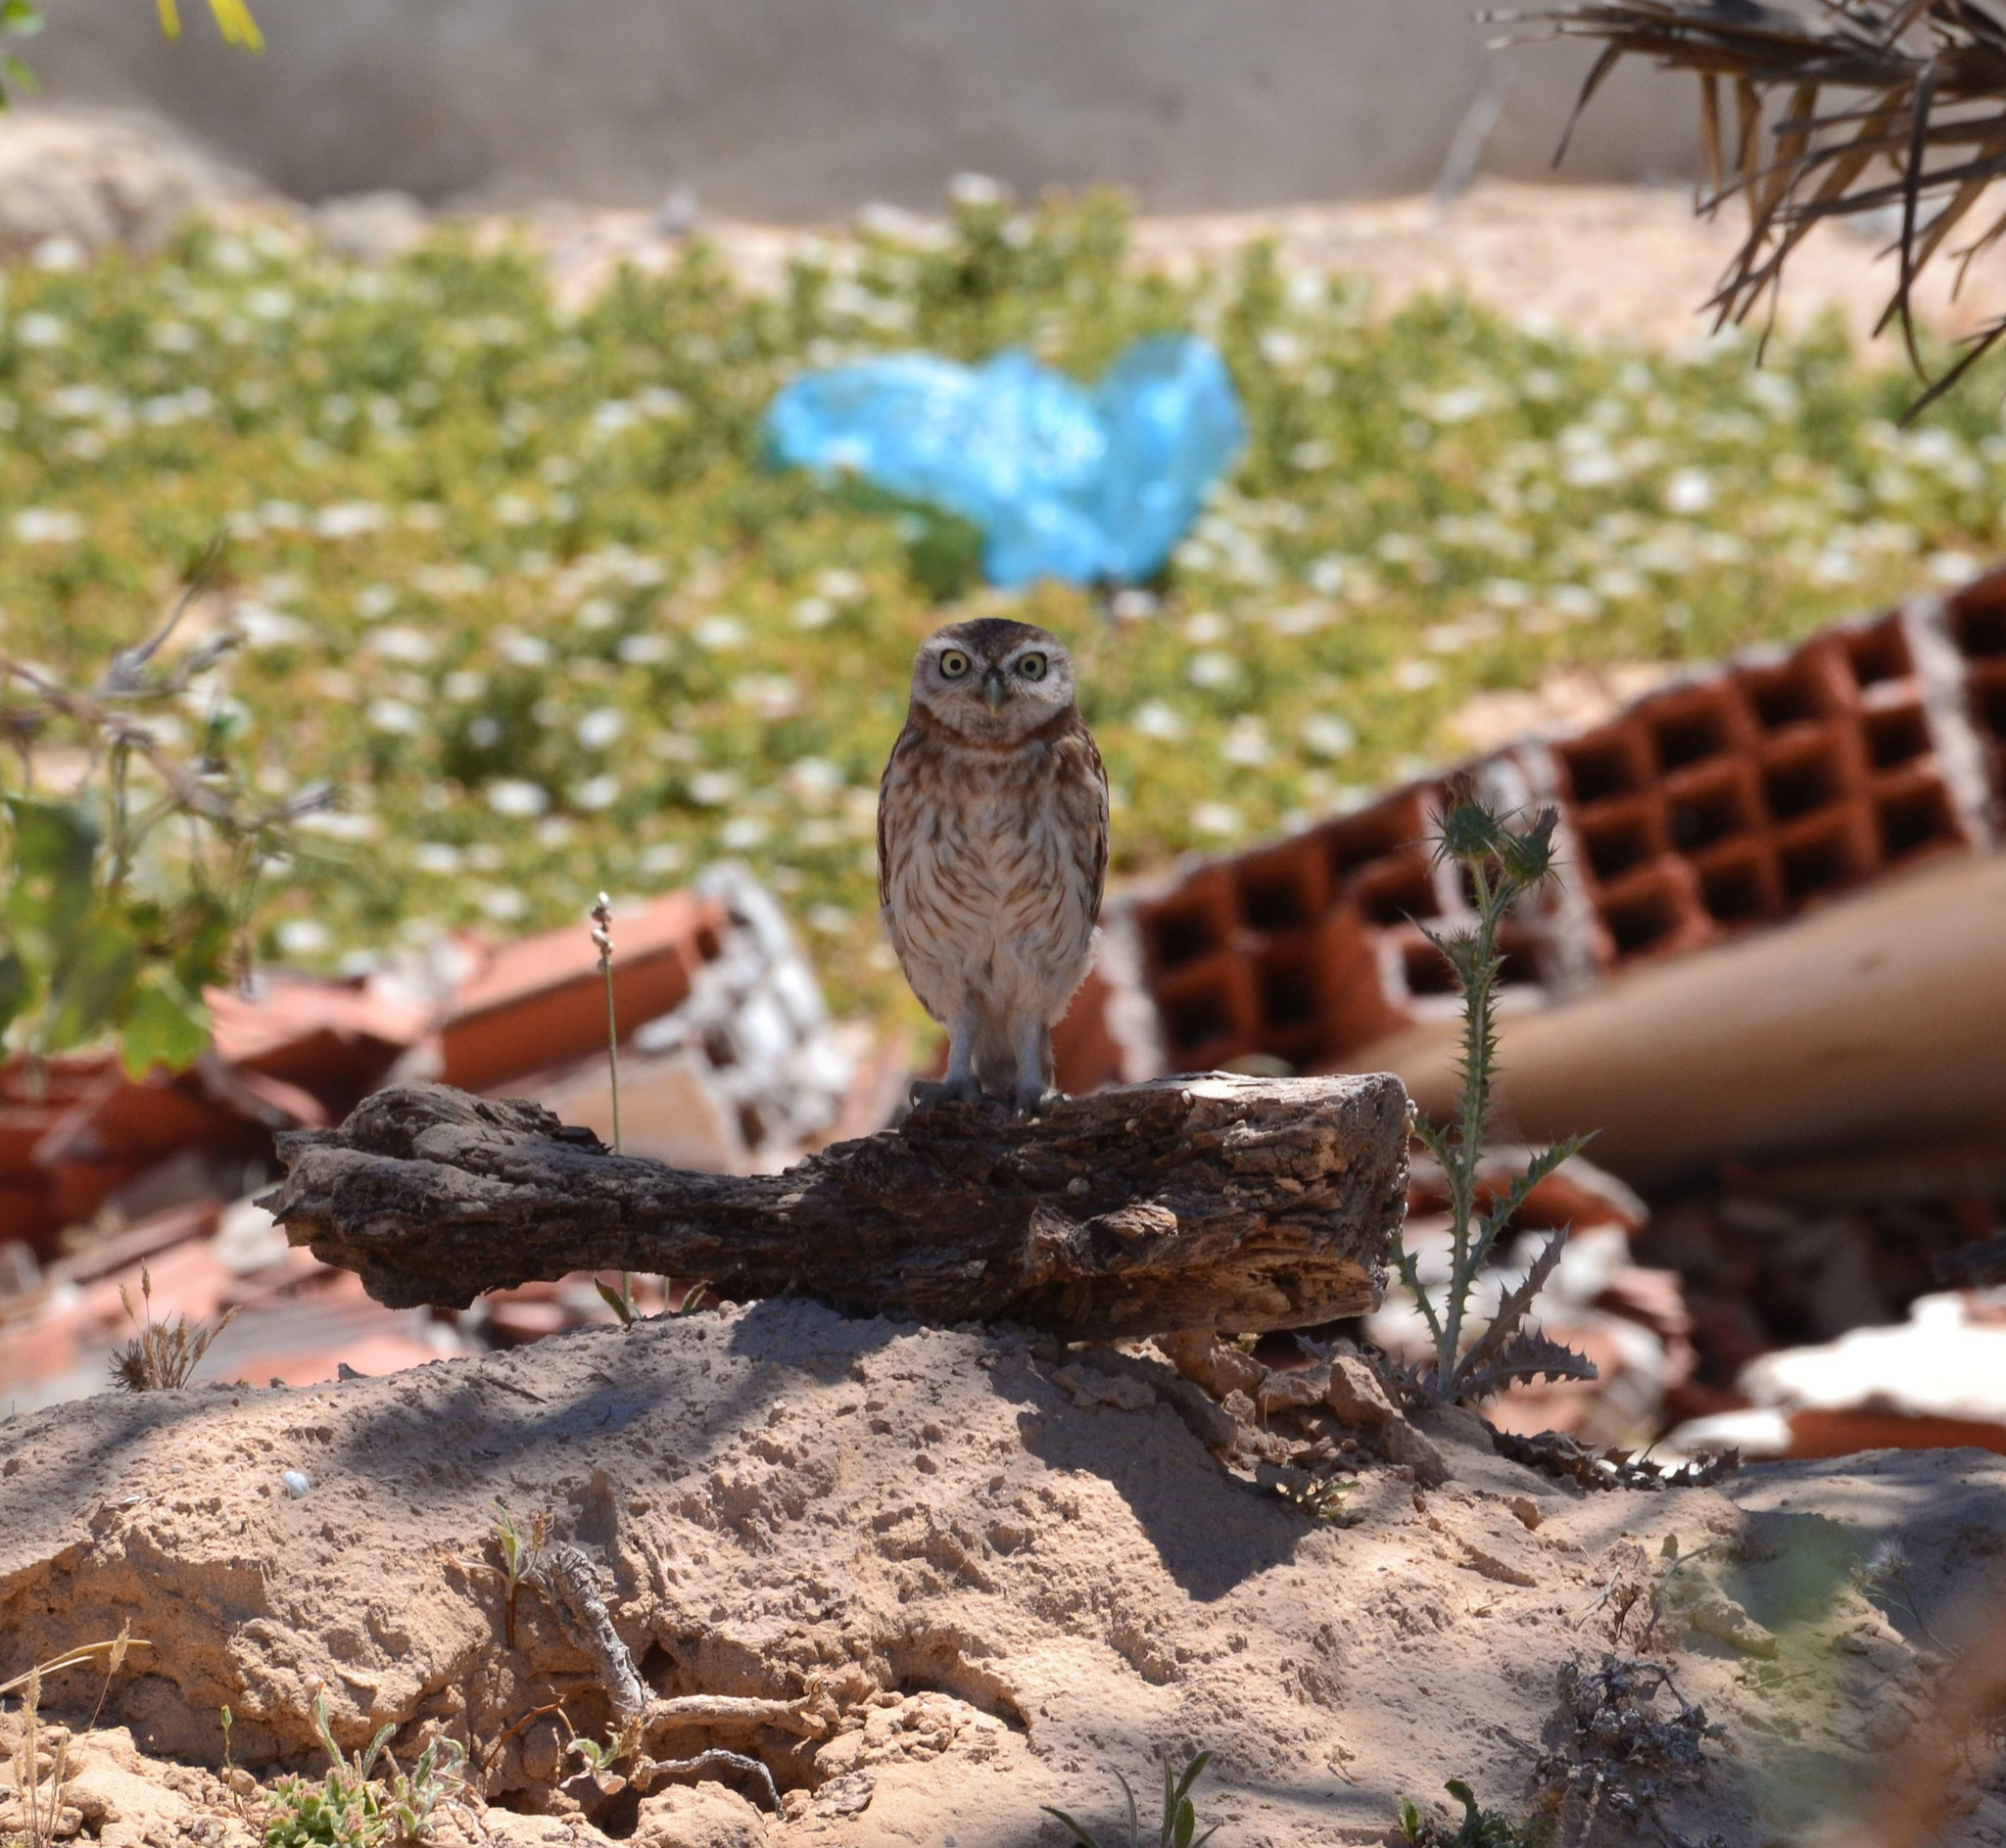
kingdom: Animalia
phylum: Chordata
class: Aves
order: Strigiformes
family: Strigidae
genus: Athene
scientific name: Athene noctua
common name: Little owl
